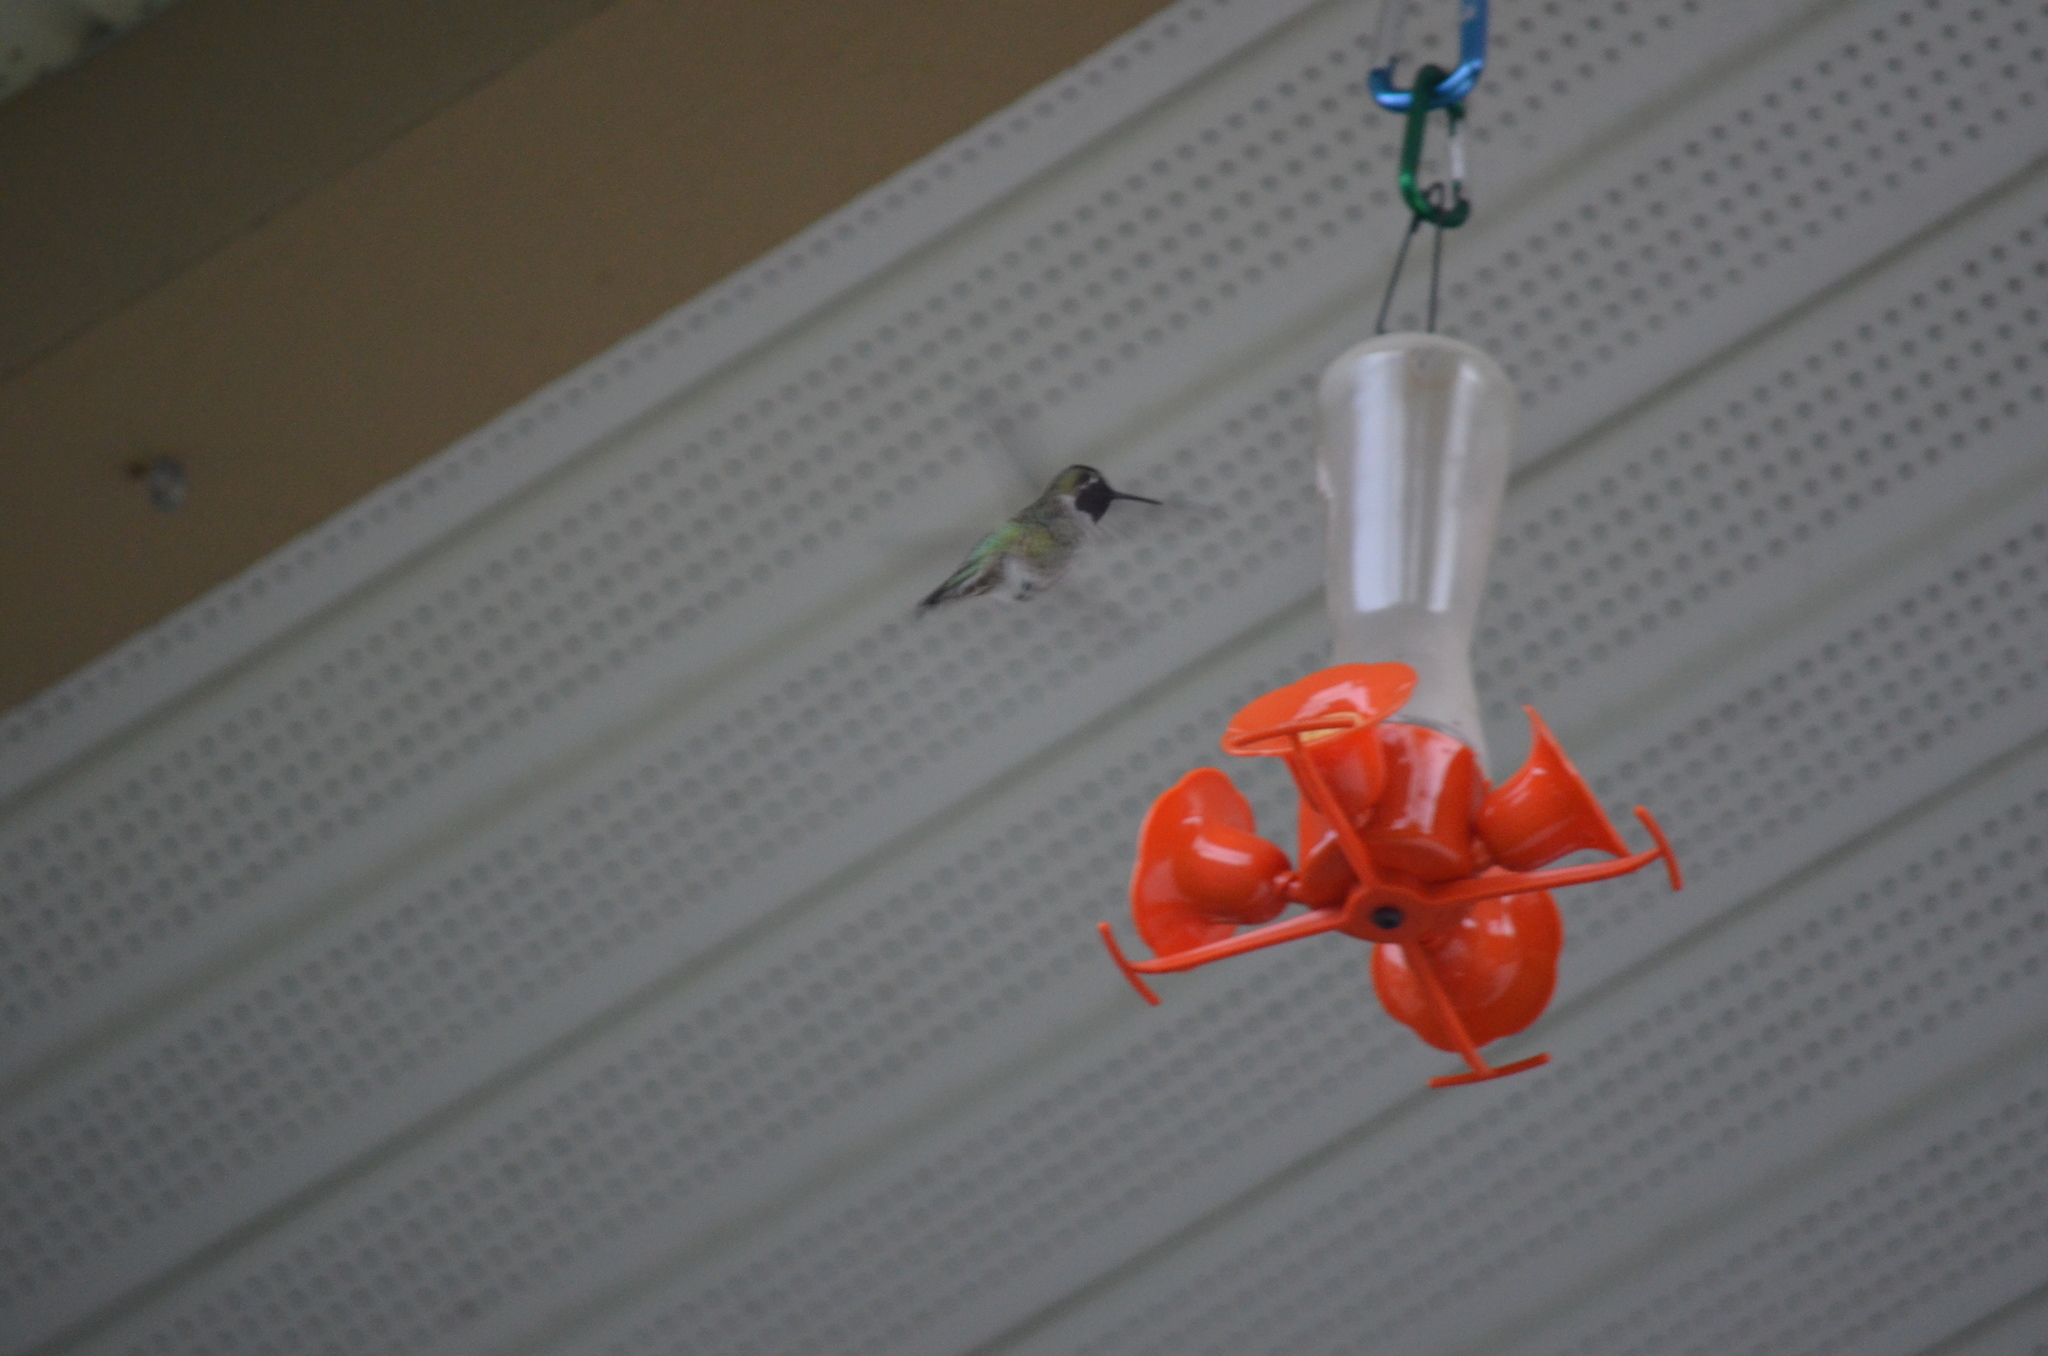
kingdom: Animalia
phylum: Chordata
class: Aves
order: Apodiformes
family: Trochilidae
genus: Calypte
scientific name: Calypte anna
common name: Anna's hummingbird
